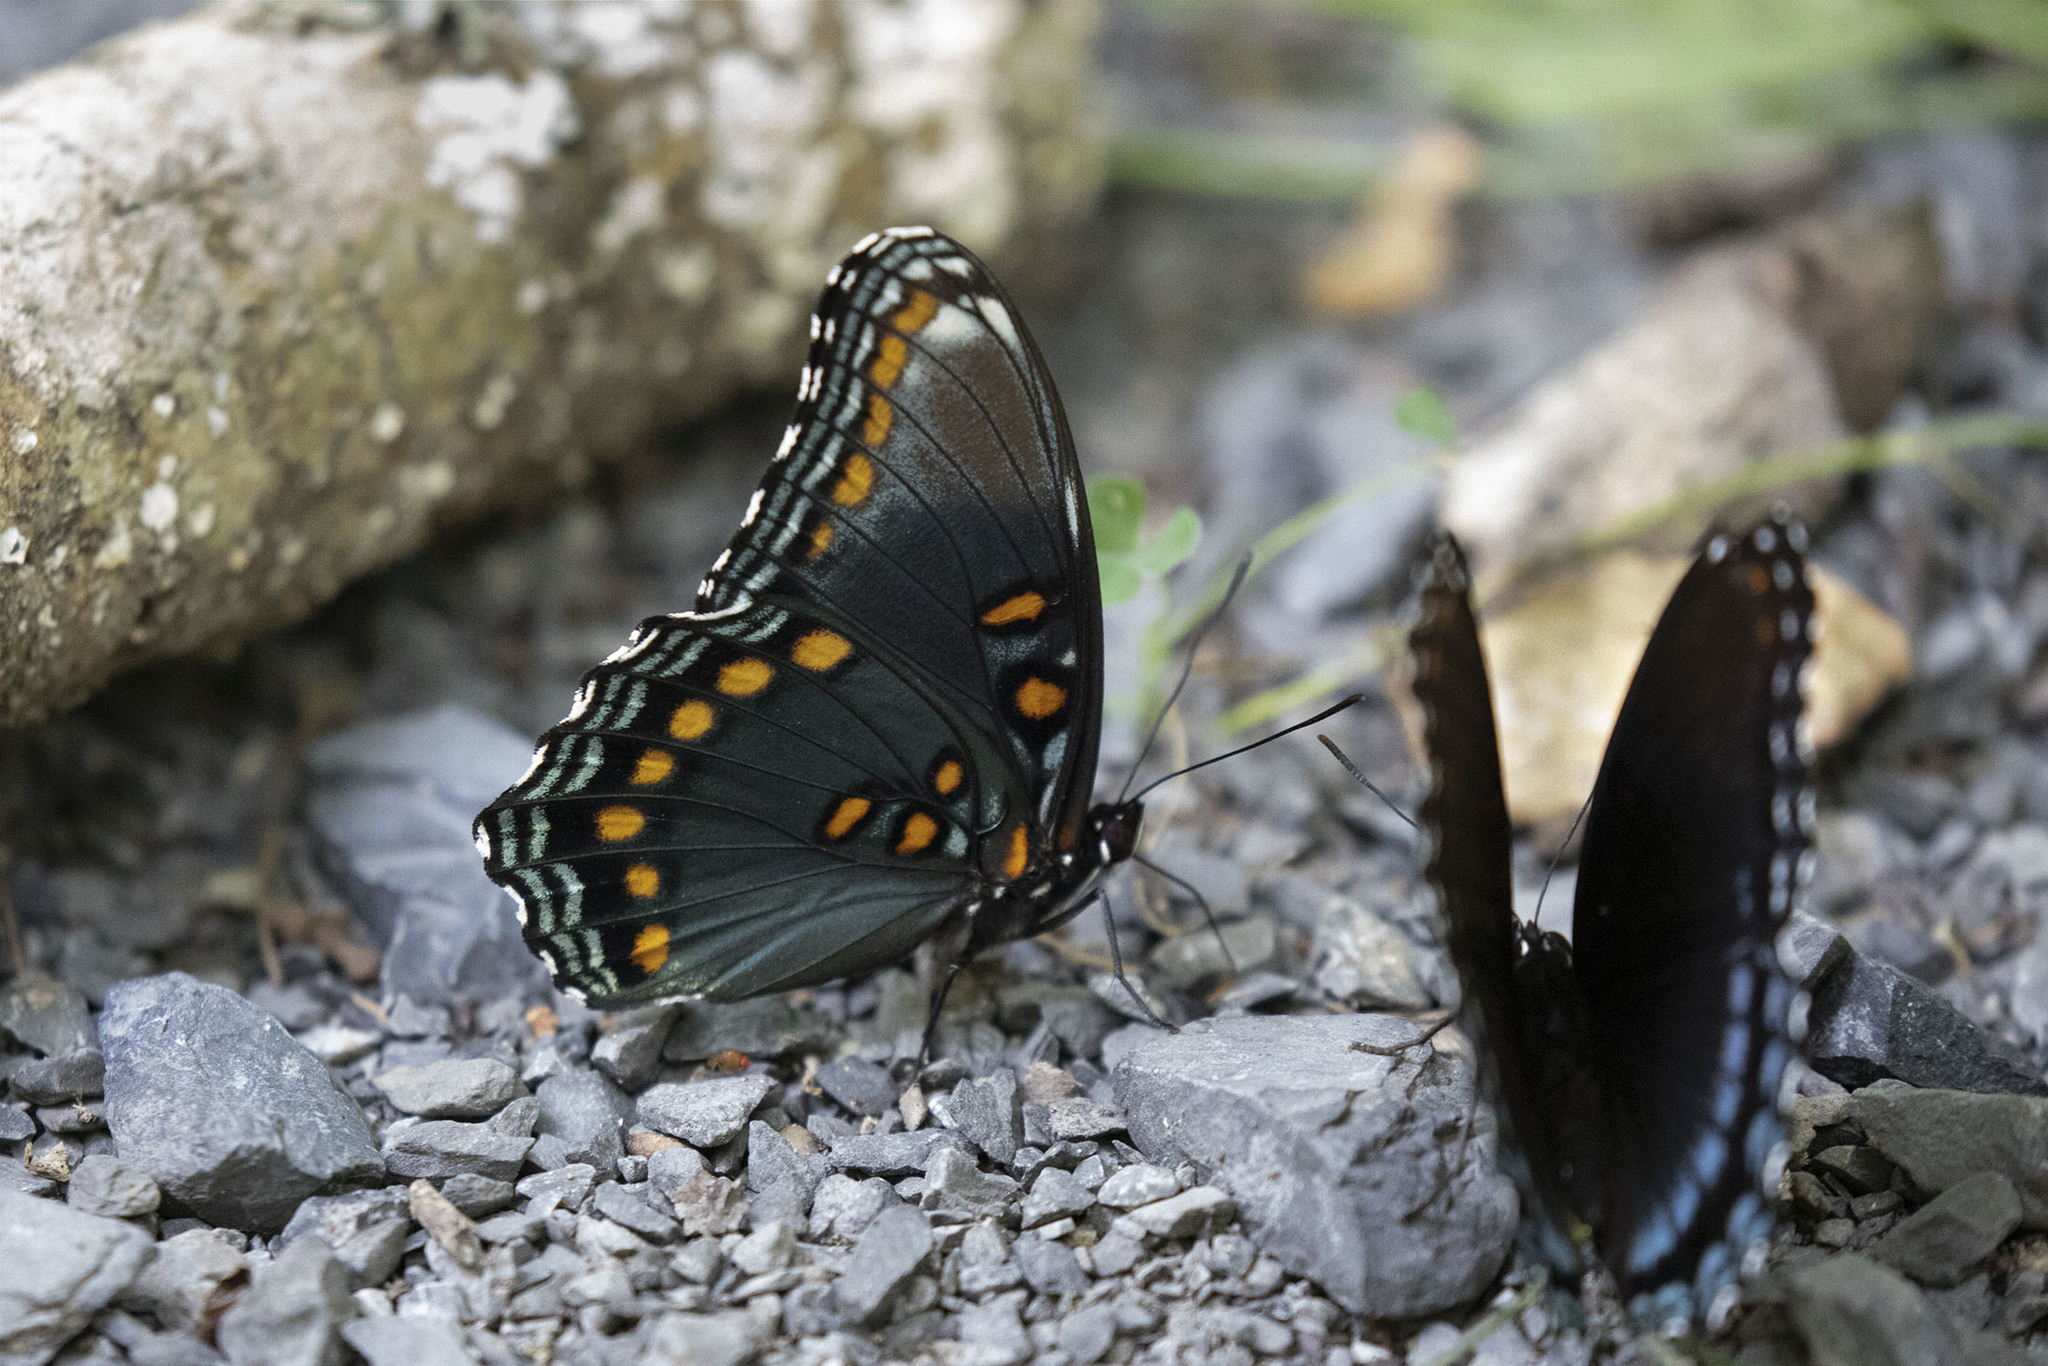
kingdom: Animalia
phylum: Arthropoda
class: Insecta
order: Lepidoptera
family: Nymphalidae
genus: Limenitis
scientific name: Limenitis astyanax
